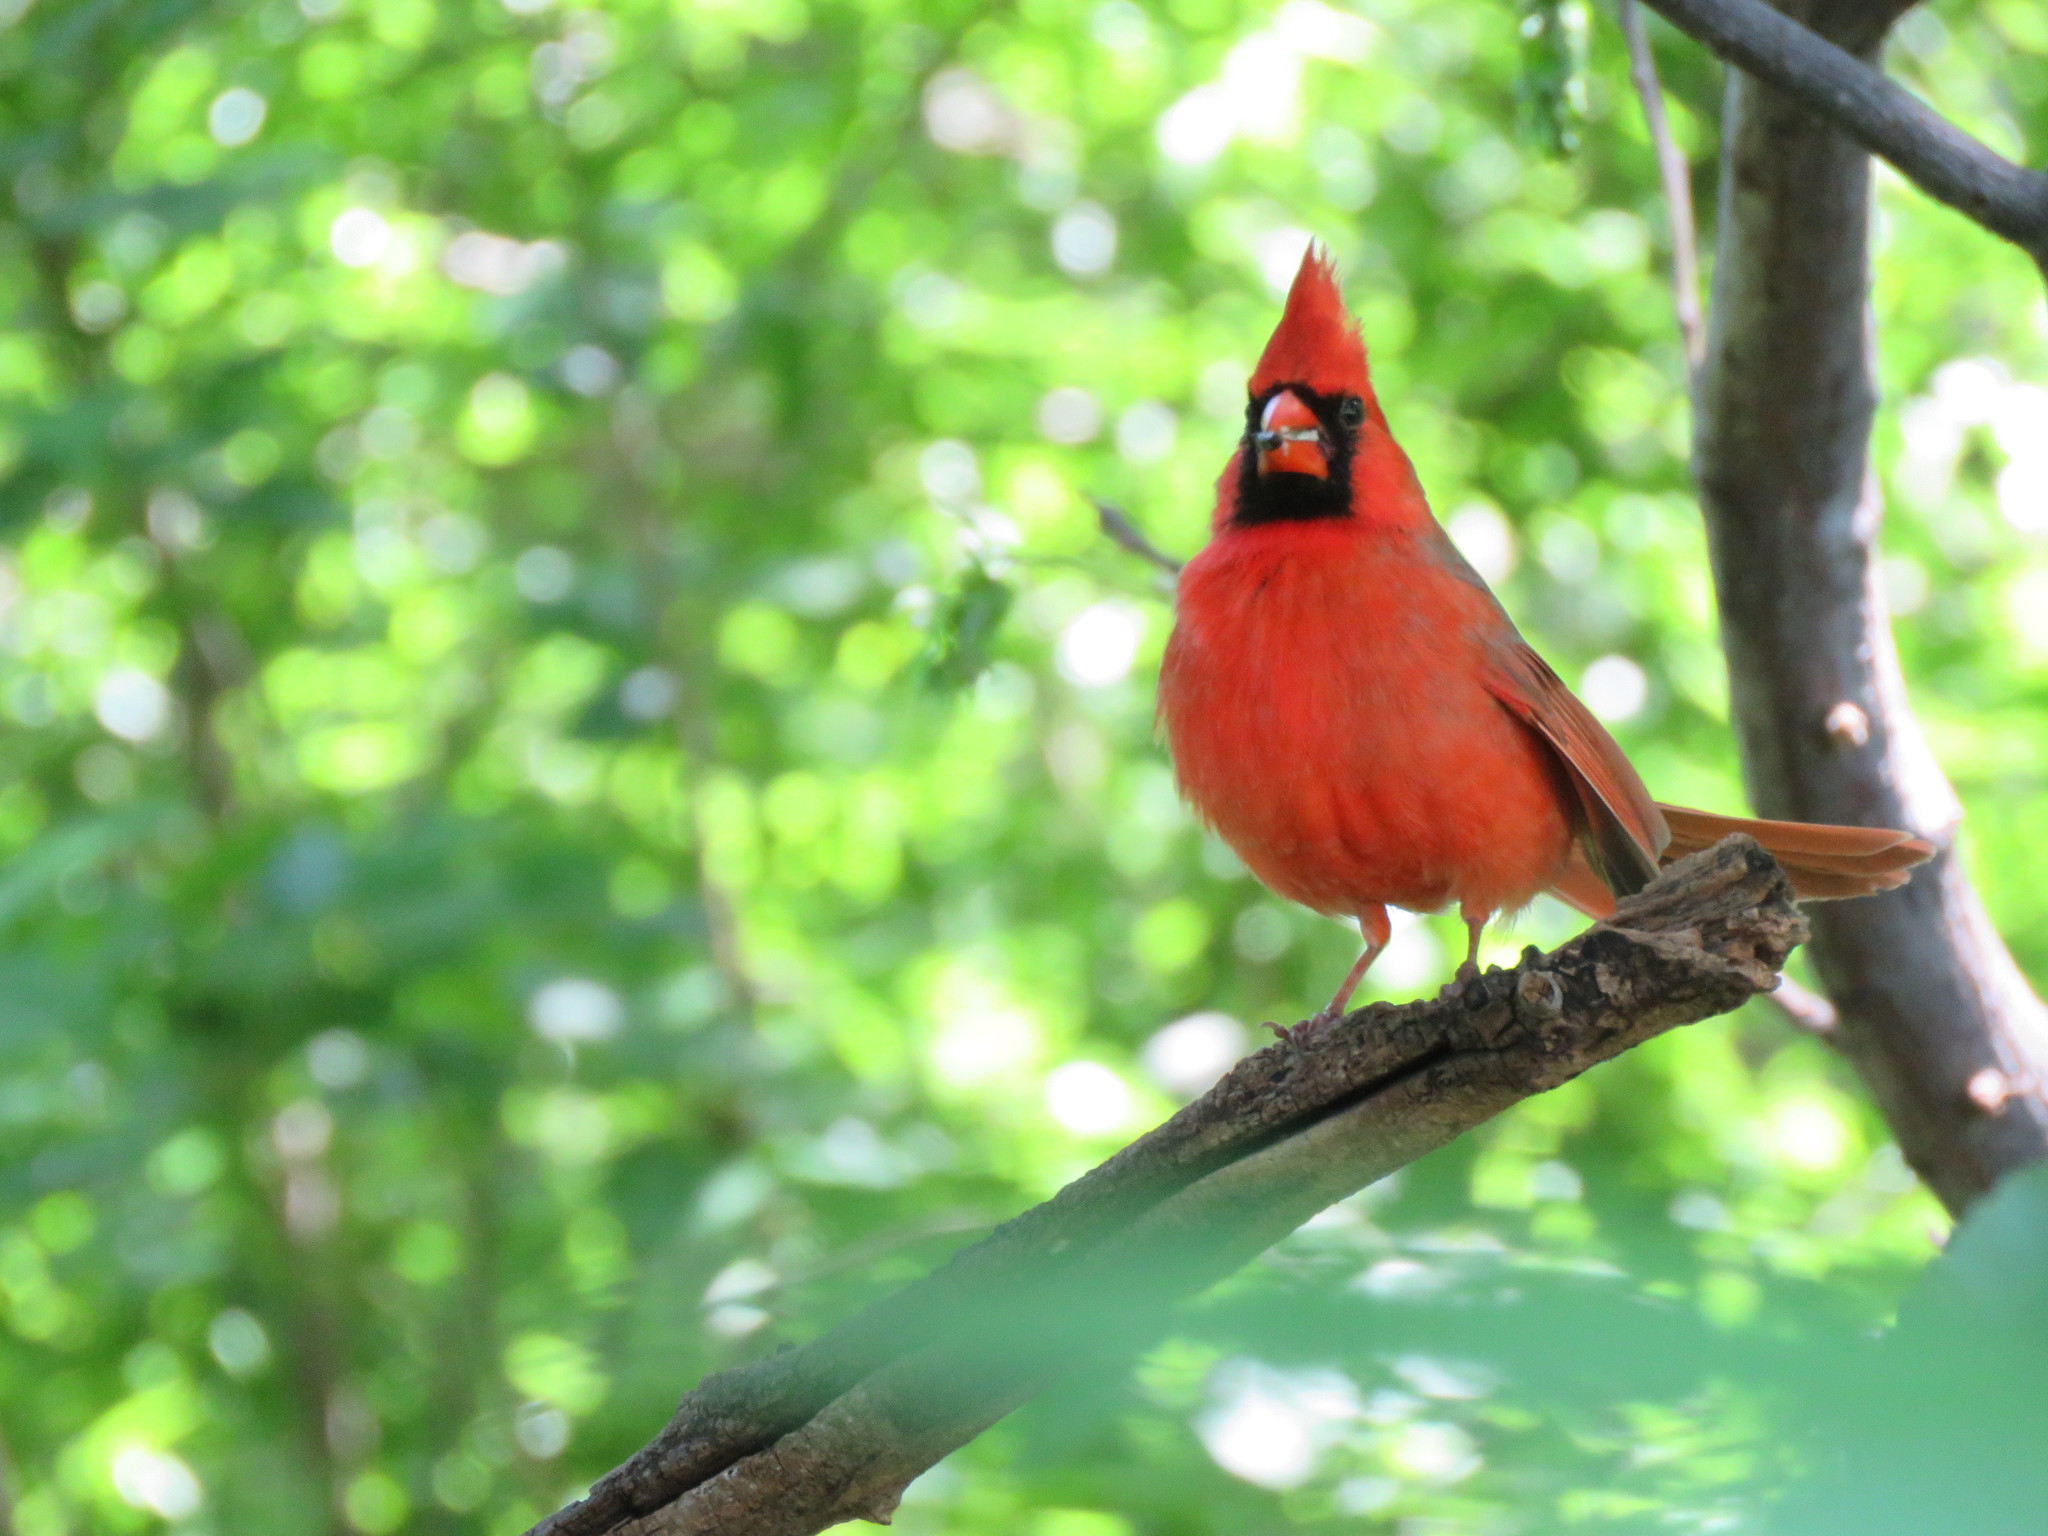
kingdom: Animalia
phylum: Chordata
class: Aves
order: Passeriformes
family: Cardinalidae
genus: Cardinalis
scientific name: Cardinalis cardinalis
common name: Northern cardinal
